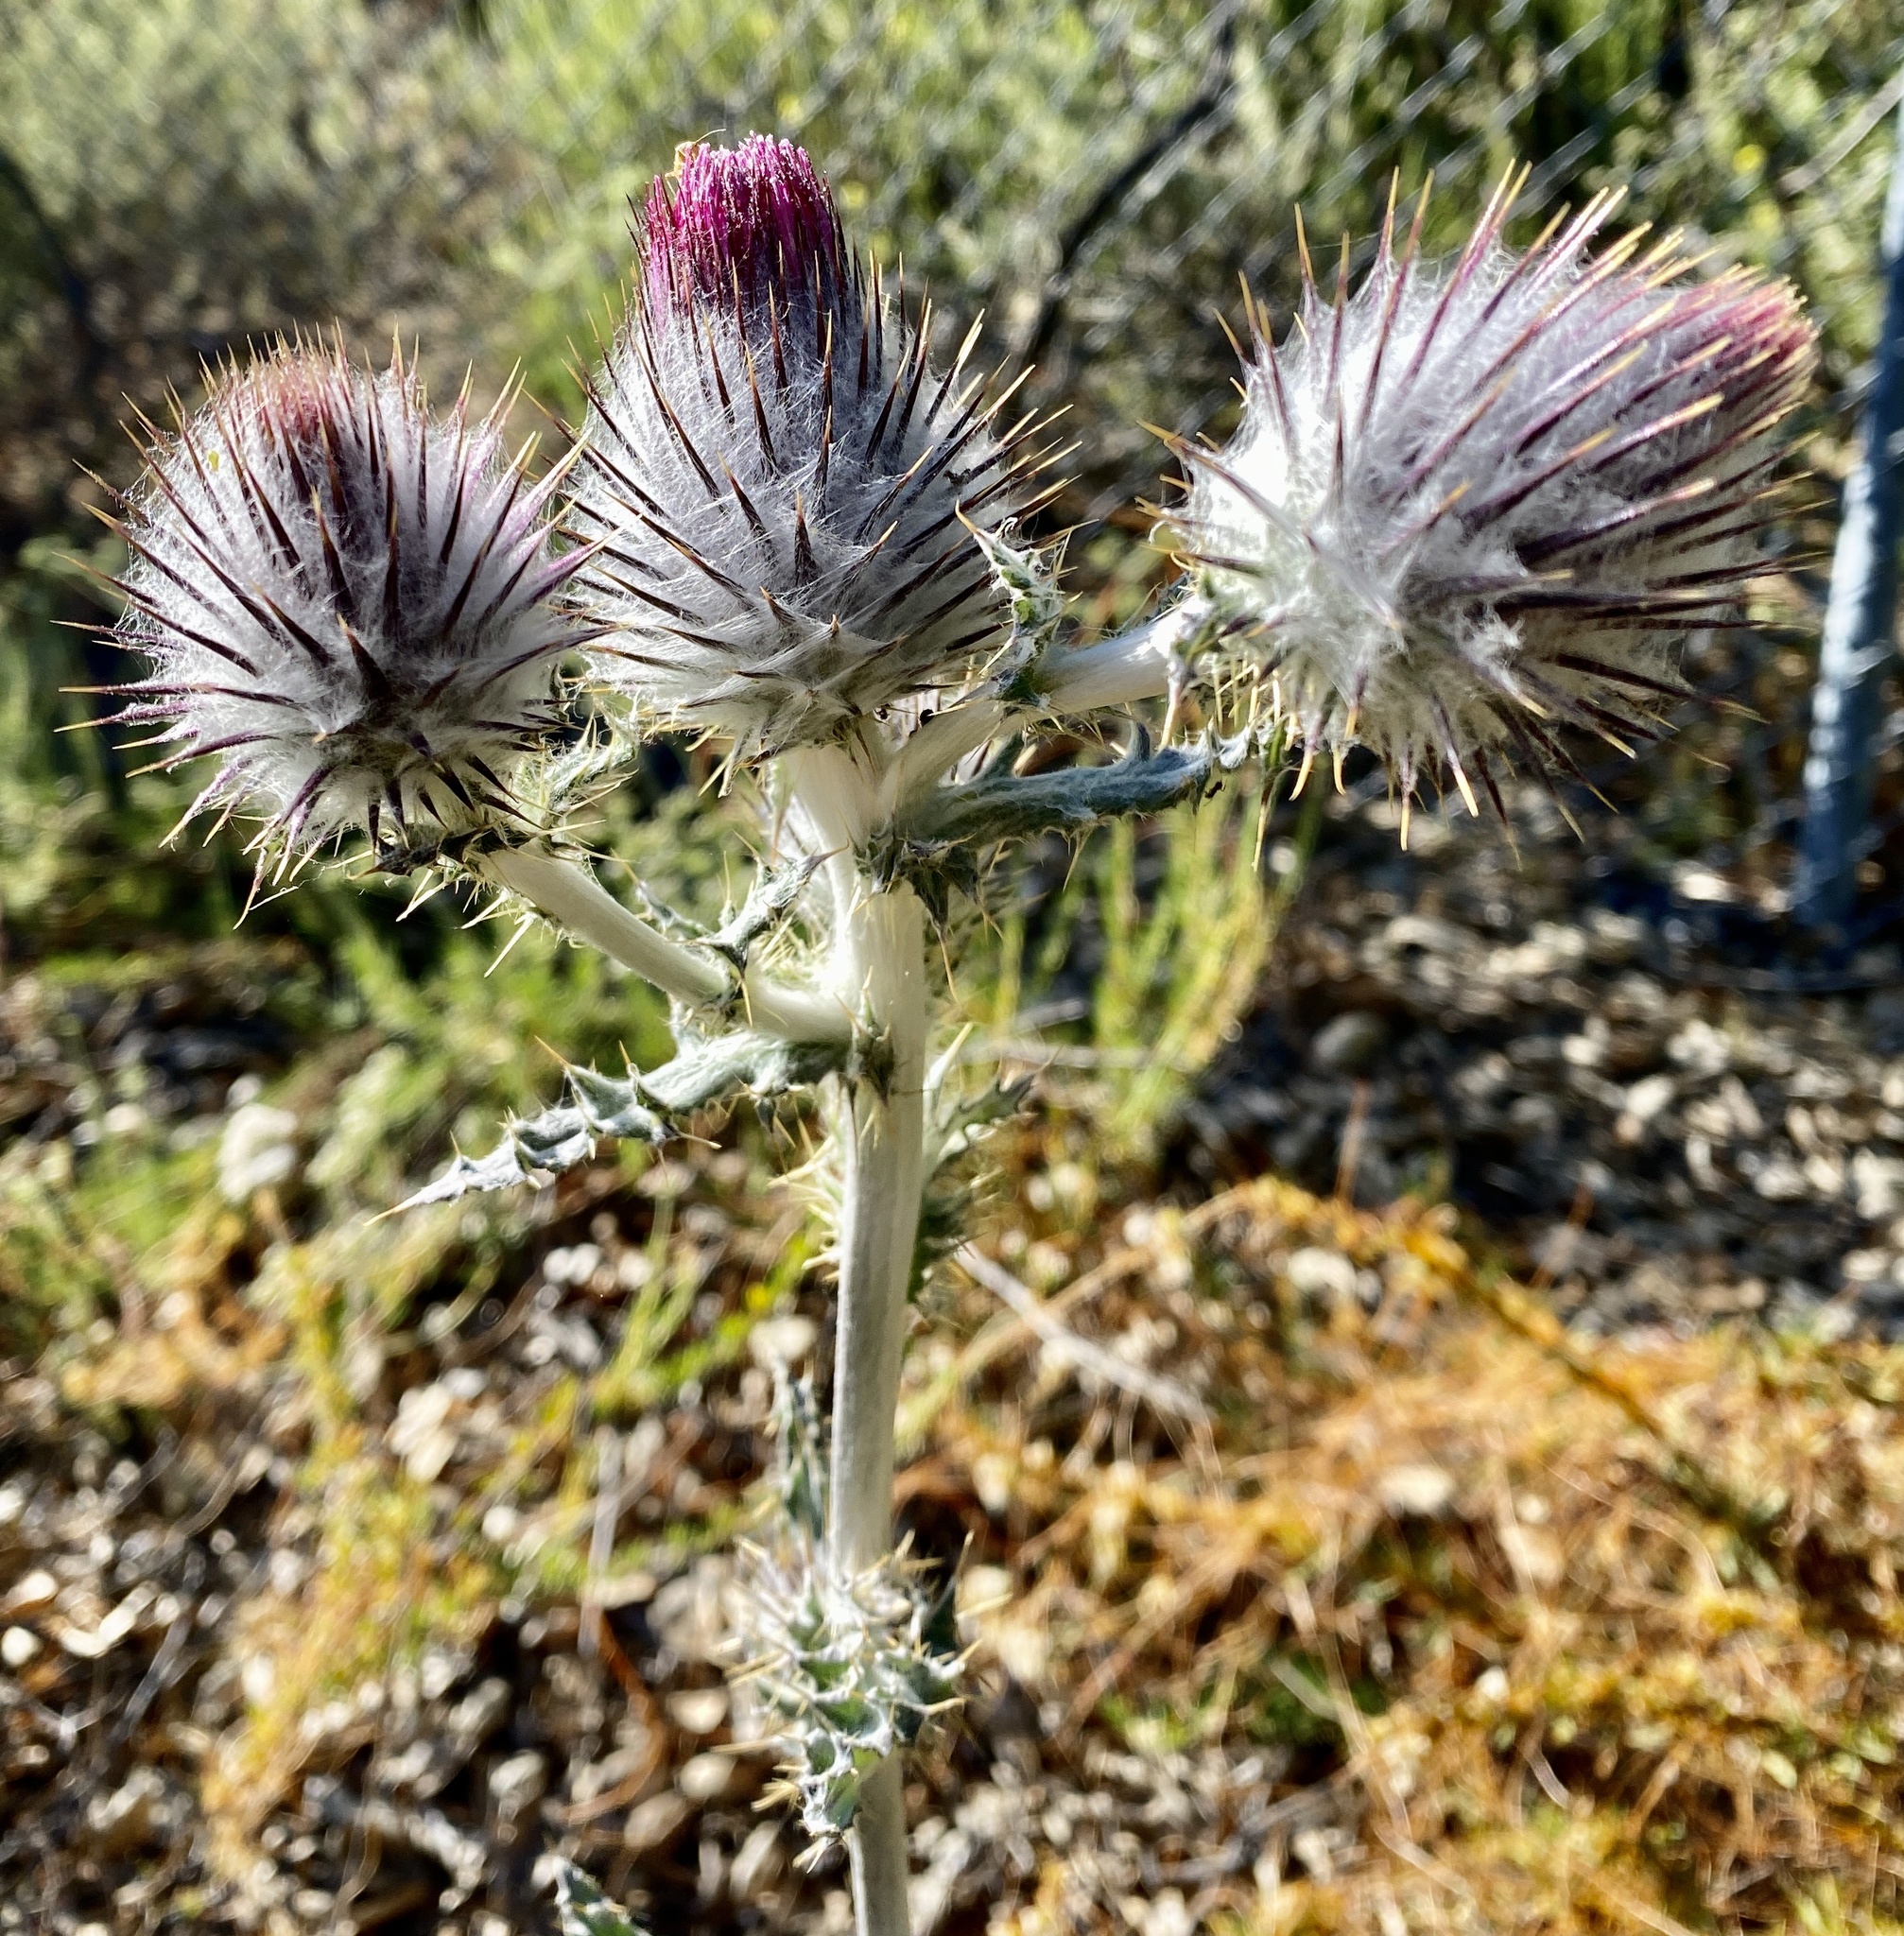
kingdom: Plantae
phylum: Tracheophyta
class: Magnoliopsida
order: Asterales
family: Asteraceae
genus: Cirsium
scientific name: Cirsium occidentale
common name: Western thistle
